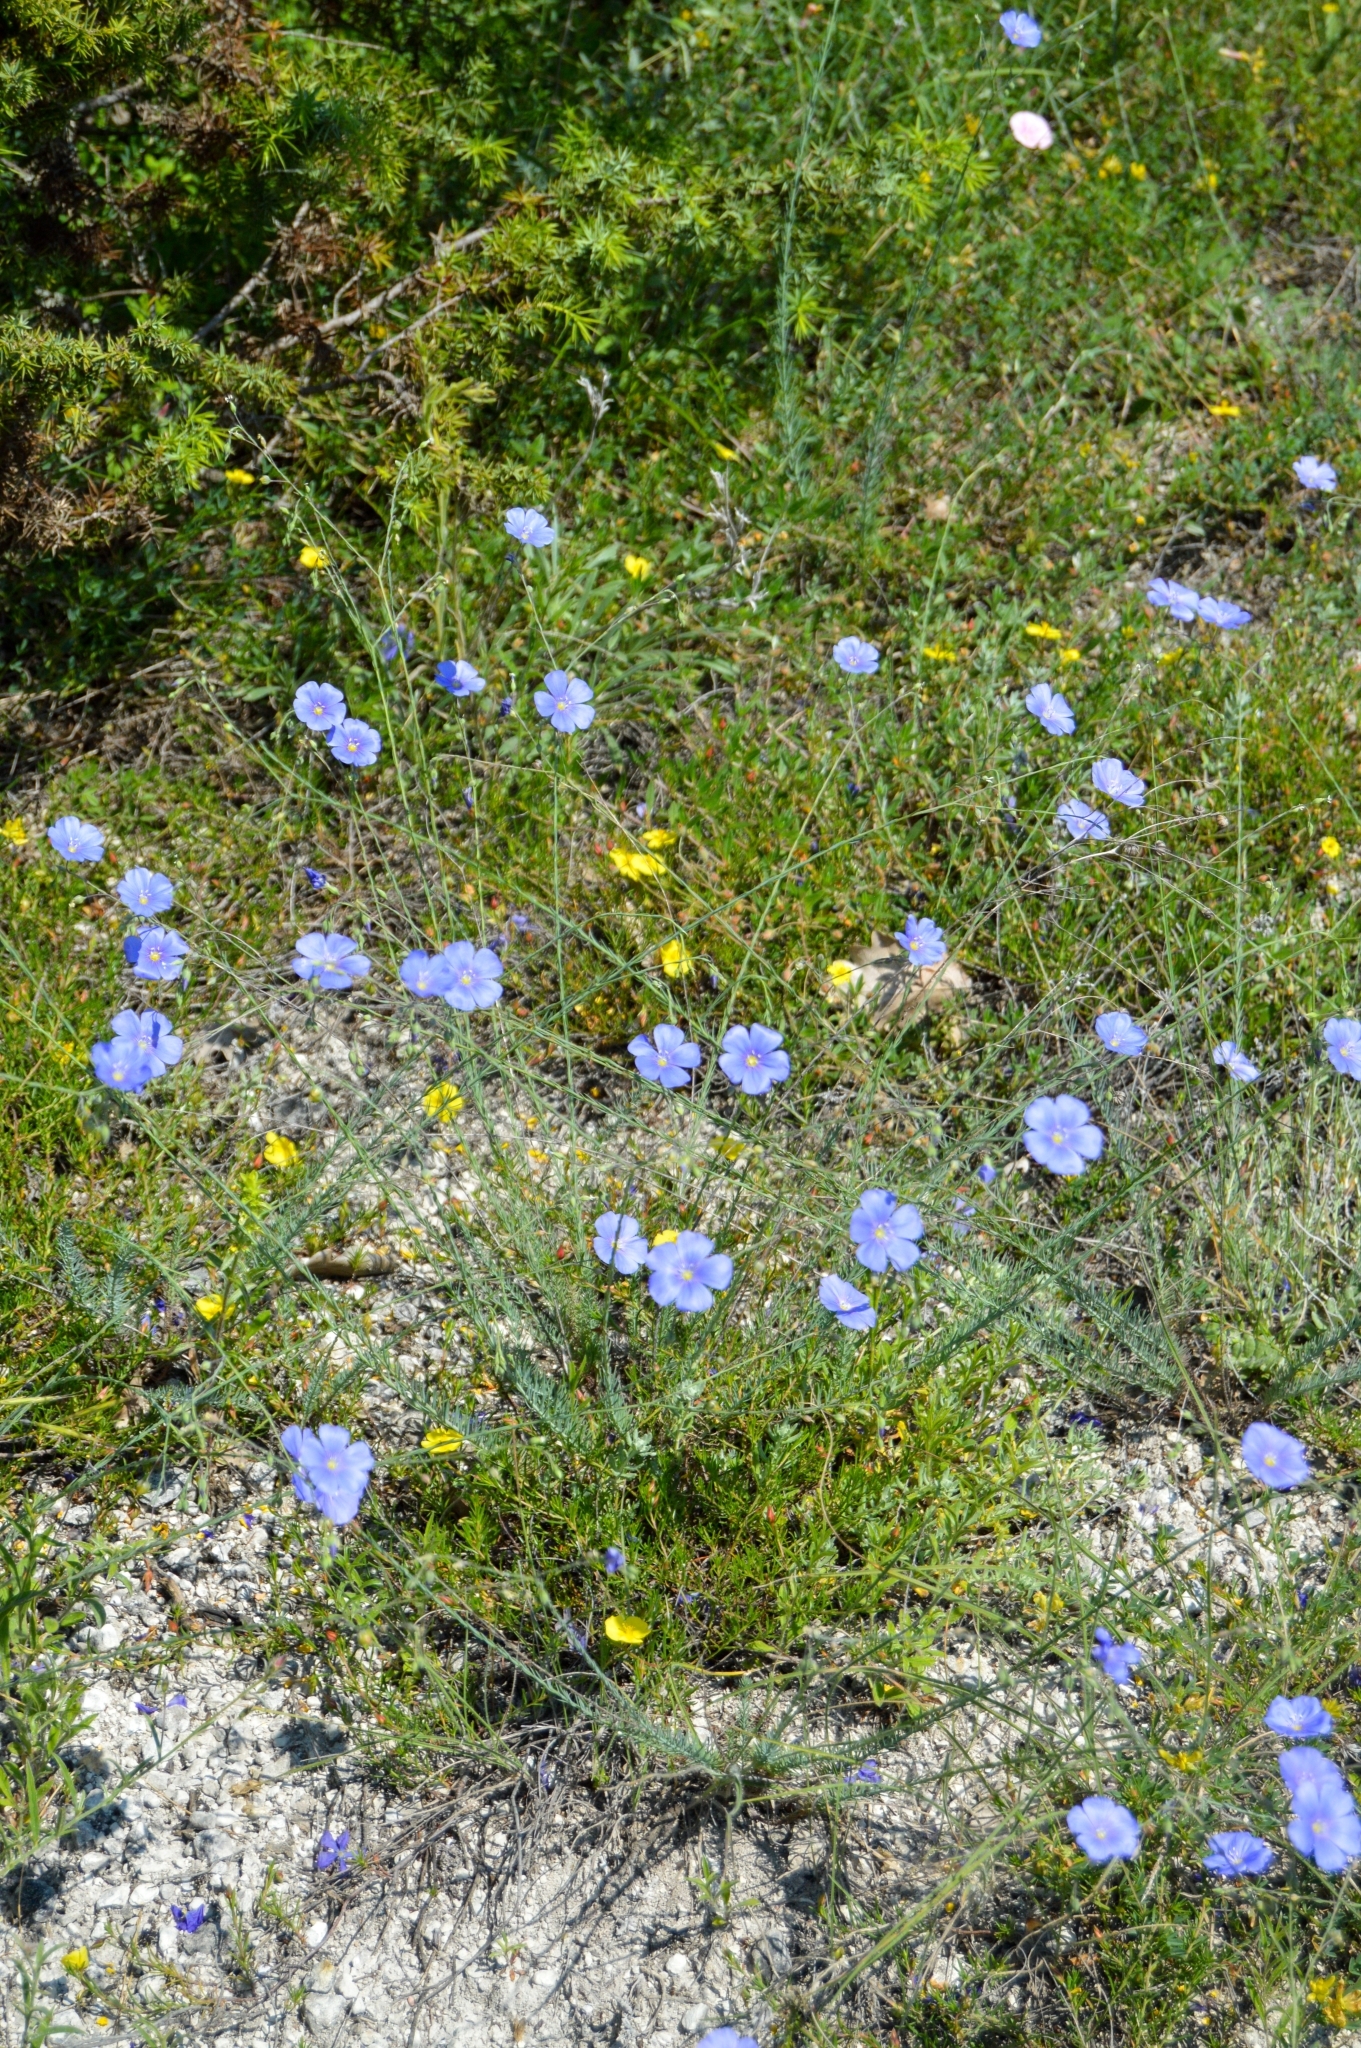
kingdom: Plantae
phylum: Tracheophyta
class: Magnoliopsida
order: Malpighiales
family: Linaceae
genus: Linum
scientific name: Linum austriacum
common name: Austrian flax
